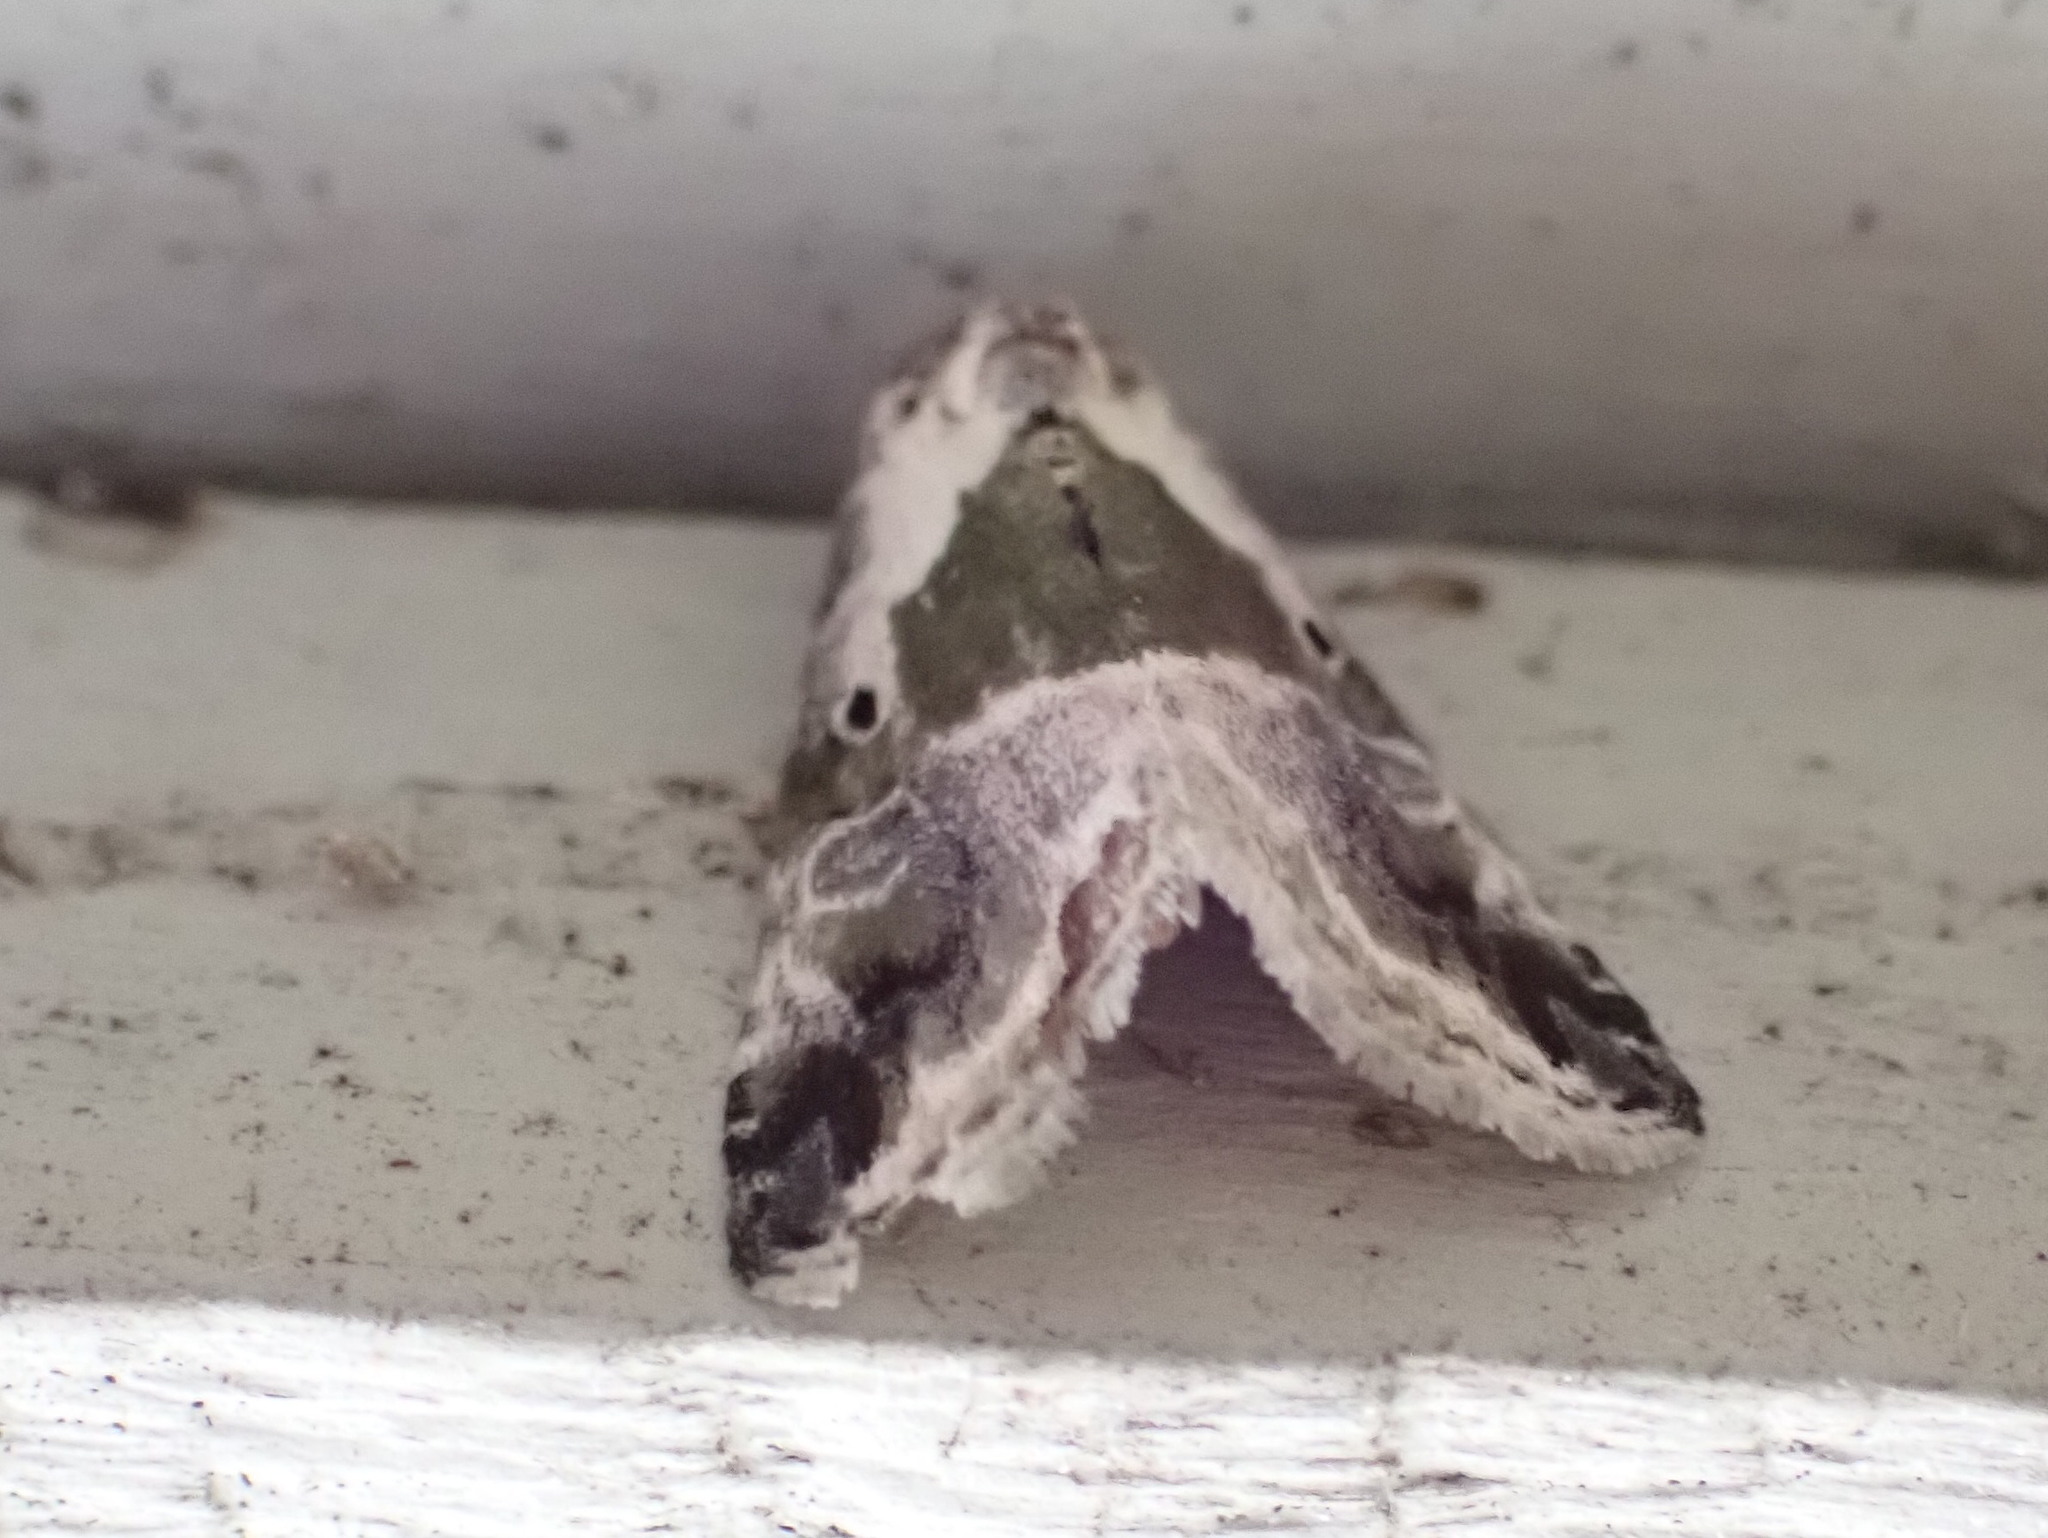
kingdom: Animalia
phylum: Arthropoda
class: Insecta
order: Lepidoptera
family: Noctuidae
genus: Maliattha
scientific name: Maliattha synochitis
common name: Black-dotted glyph
